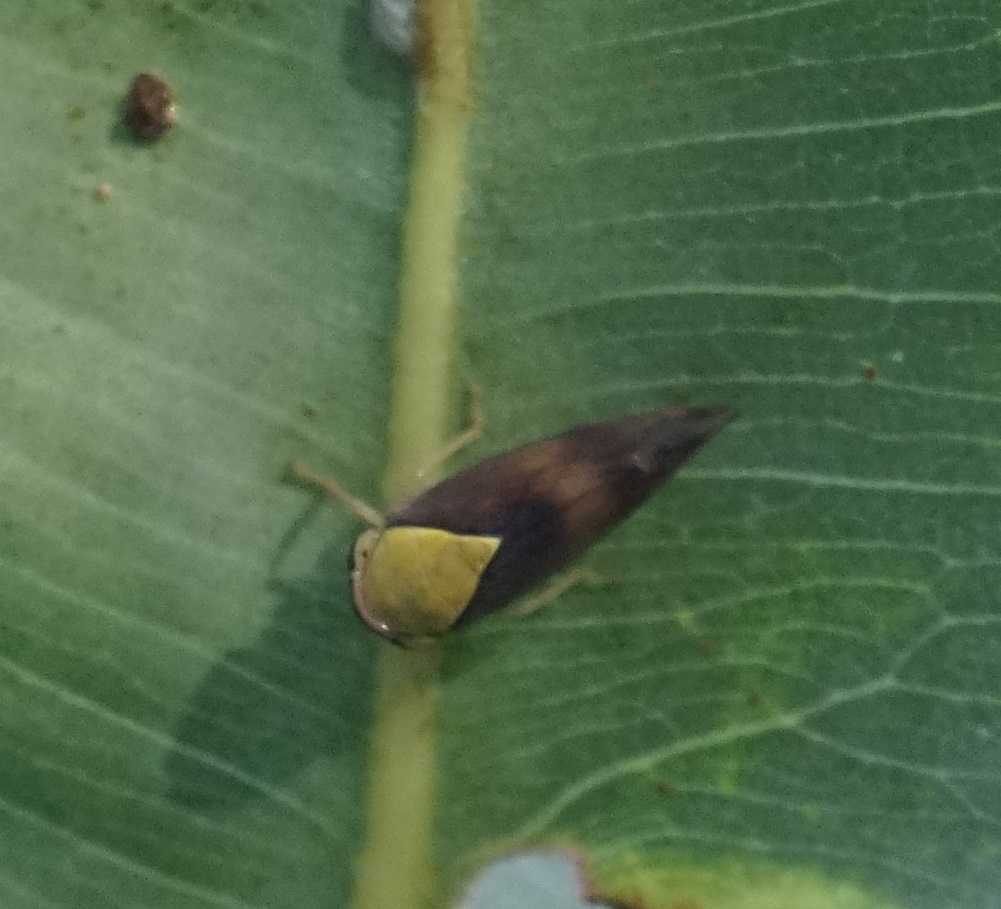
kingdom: Animalia
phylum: Arthropoda
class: Insecta
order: Hemiptera
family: Cicadellidae
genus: Brunotartessus
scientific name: Brunotartessus fulvus
